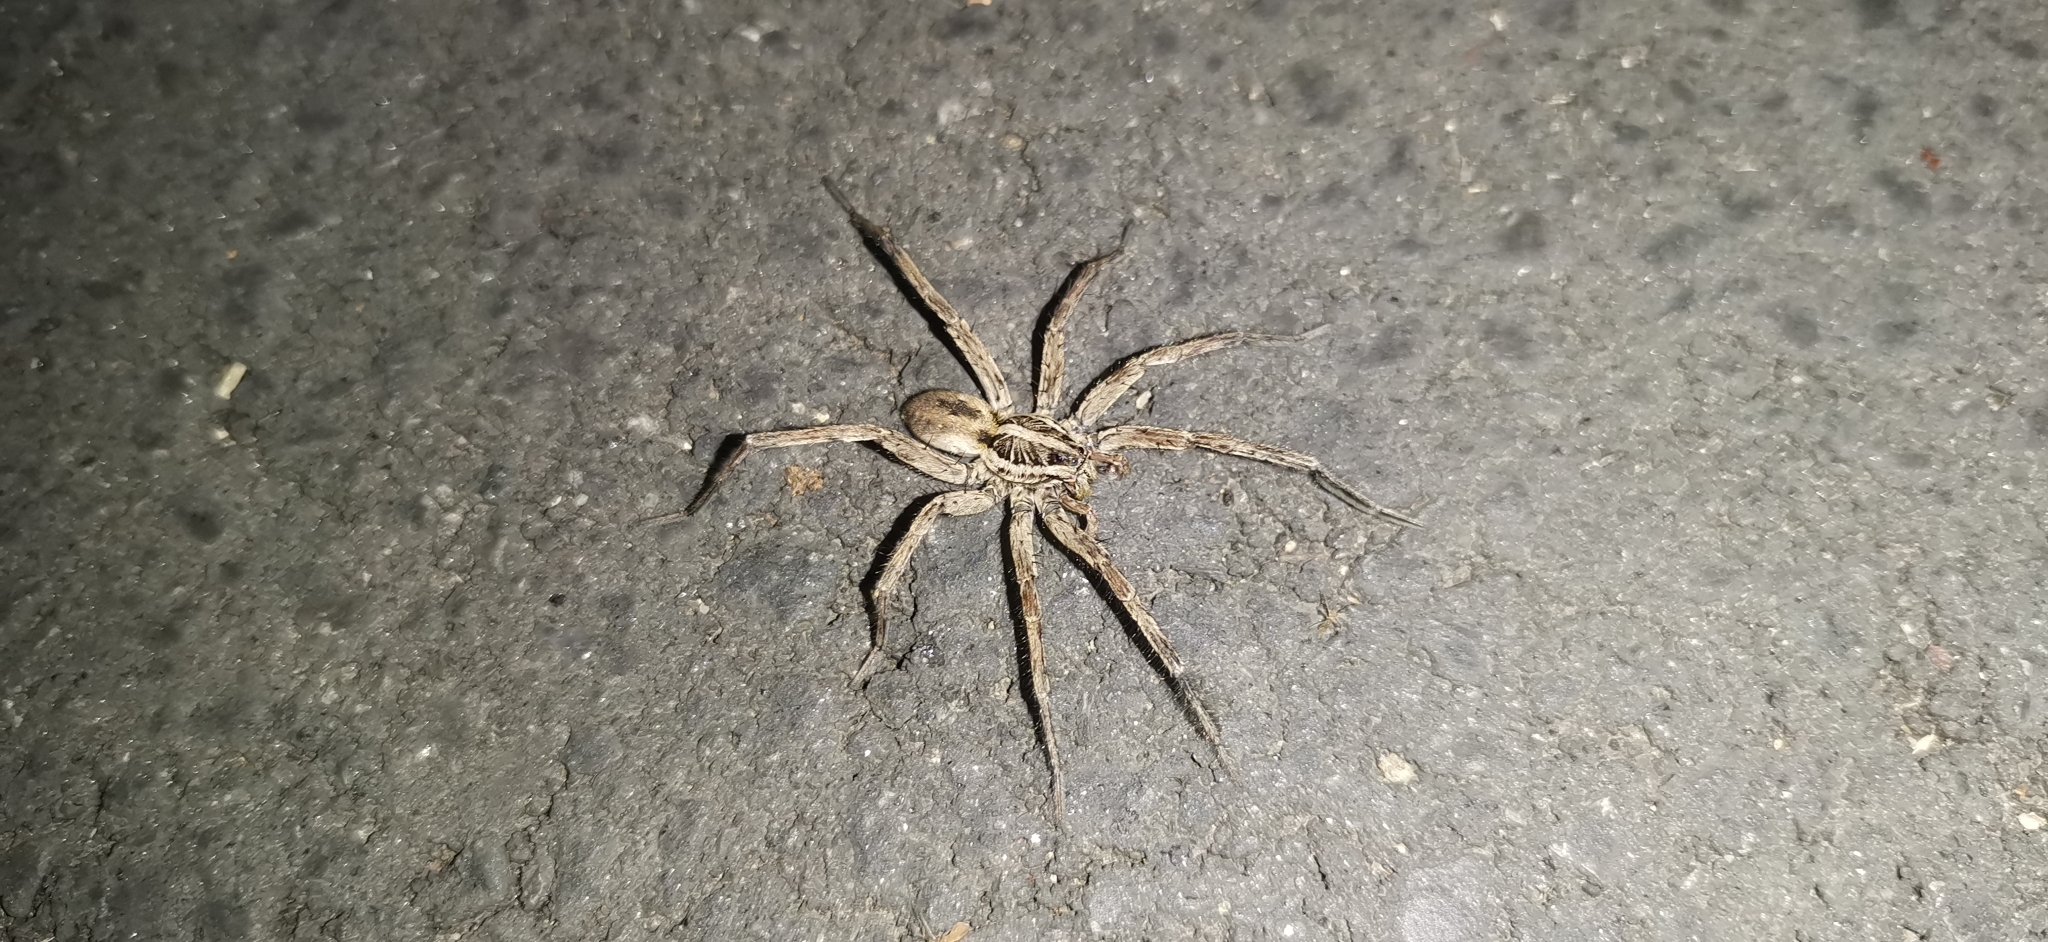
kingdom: Animalia
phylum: Arthropoda
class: Arachnida
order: Araneae
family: Lycosidae
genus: Hogna
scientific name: Hogna radiata
